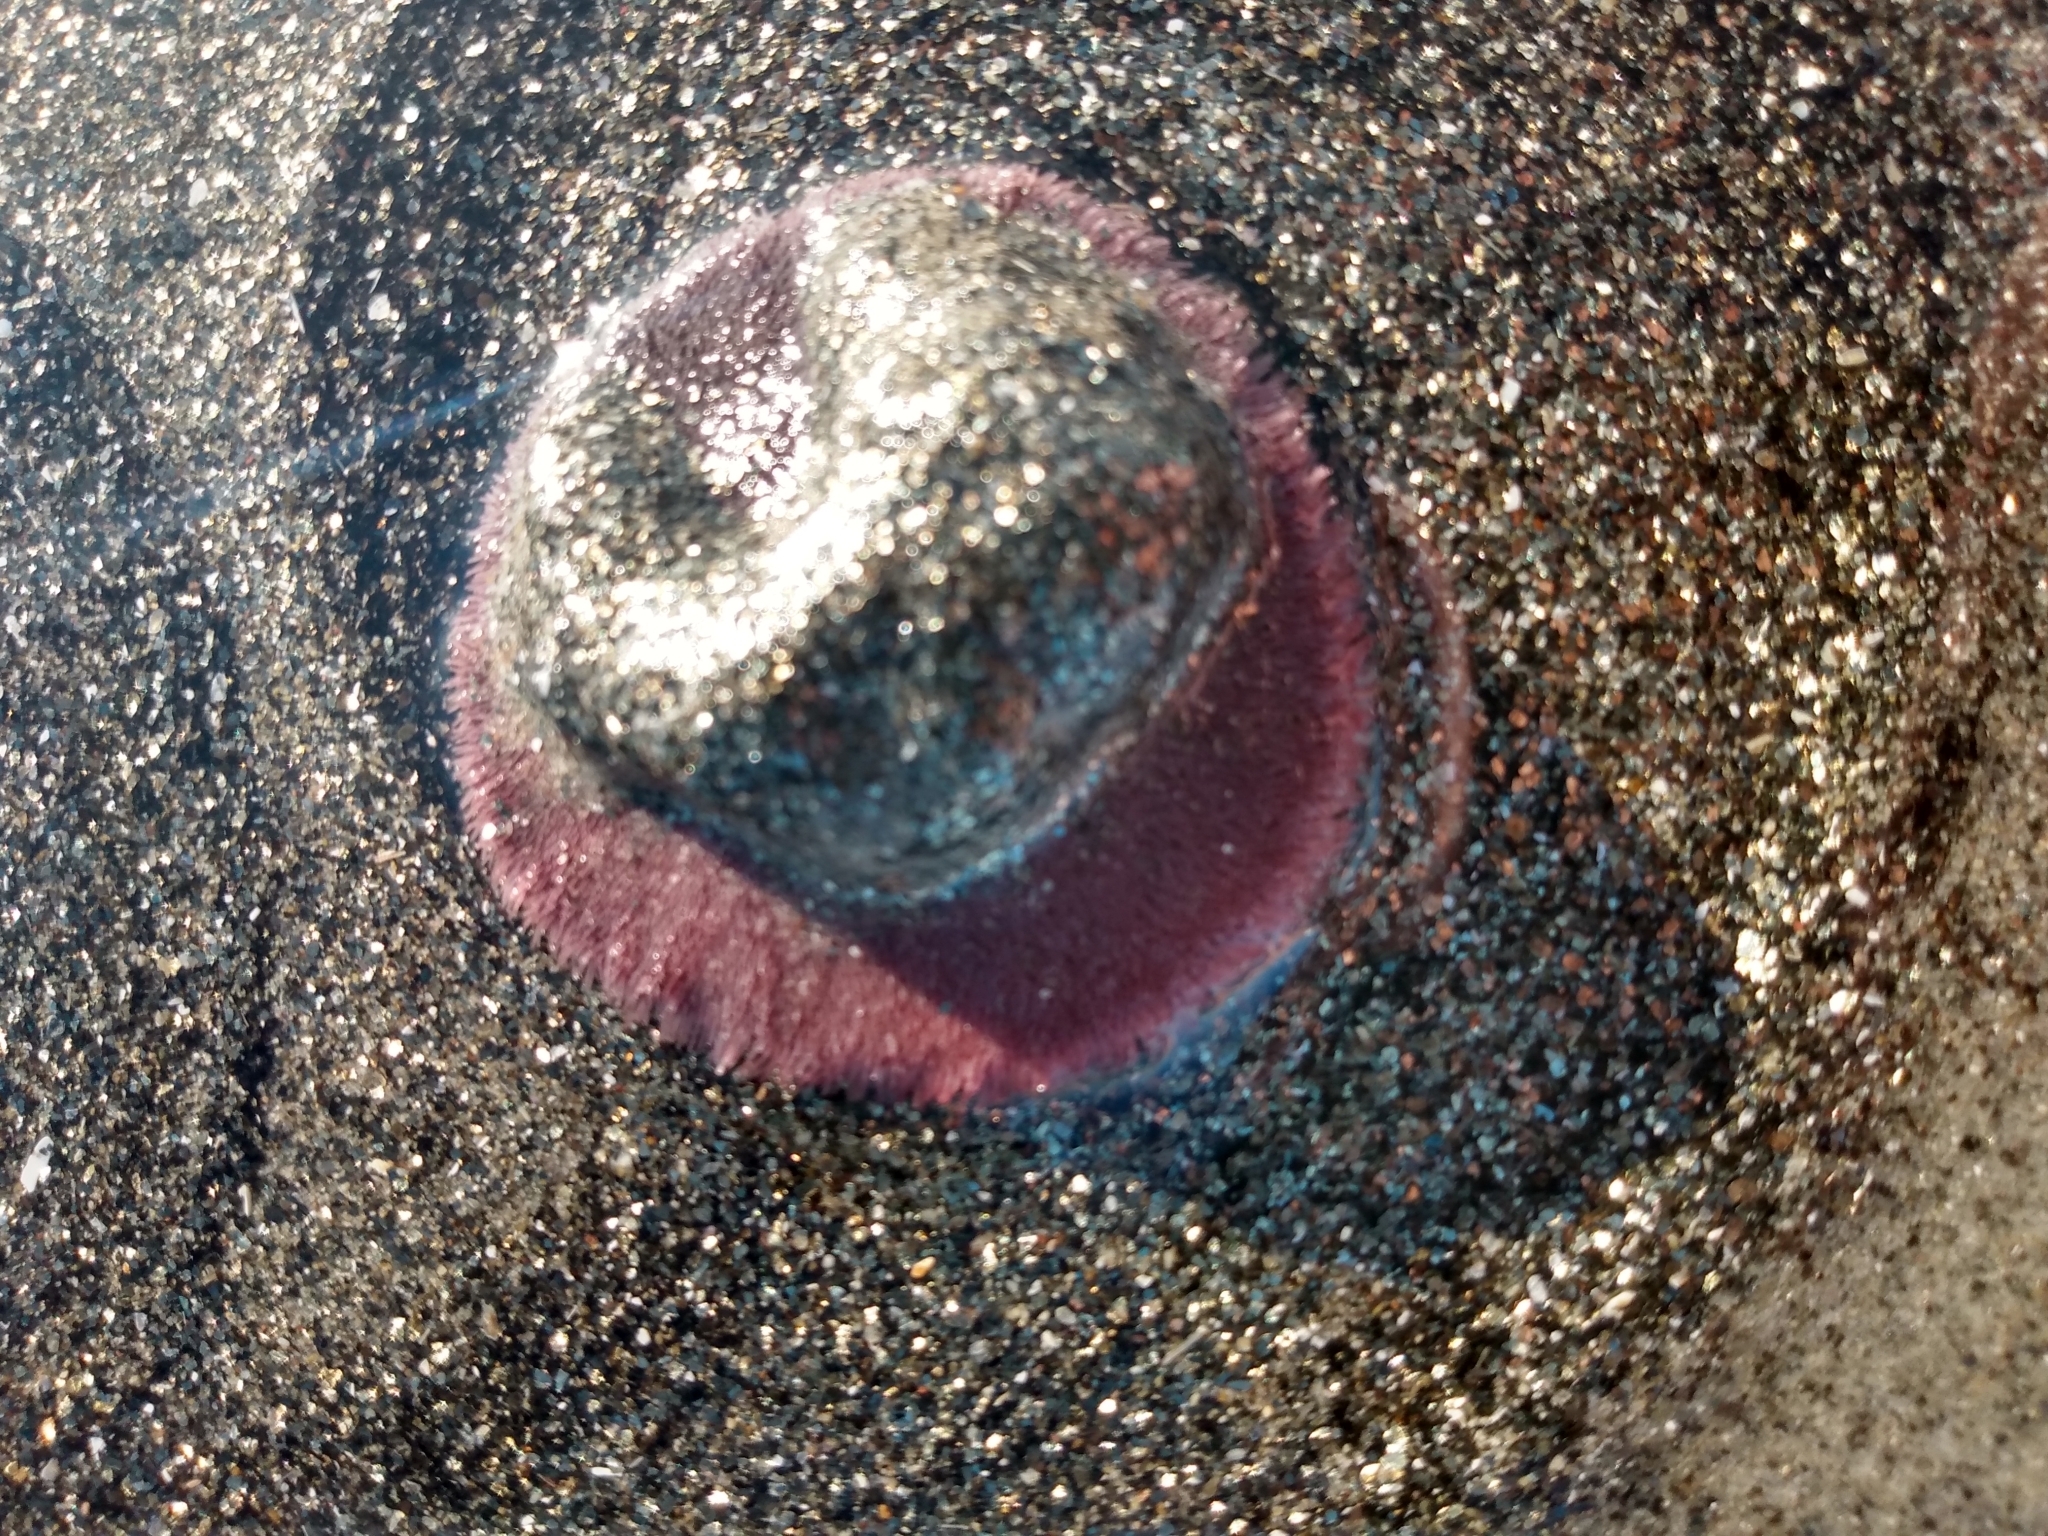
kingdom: Animalia
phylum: Echinodermata
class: Echinoidea
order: Echinolampadacea
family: Dendrasteridae
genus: Dendraster
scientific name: Dendraster excentricus
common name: Eccentric sand dollar sea urchin
